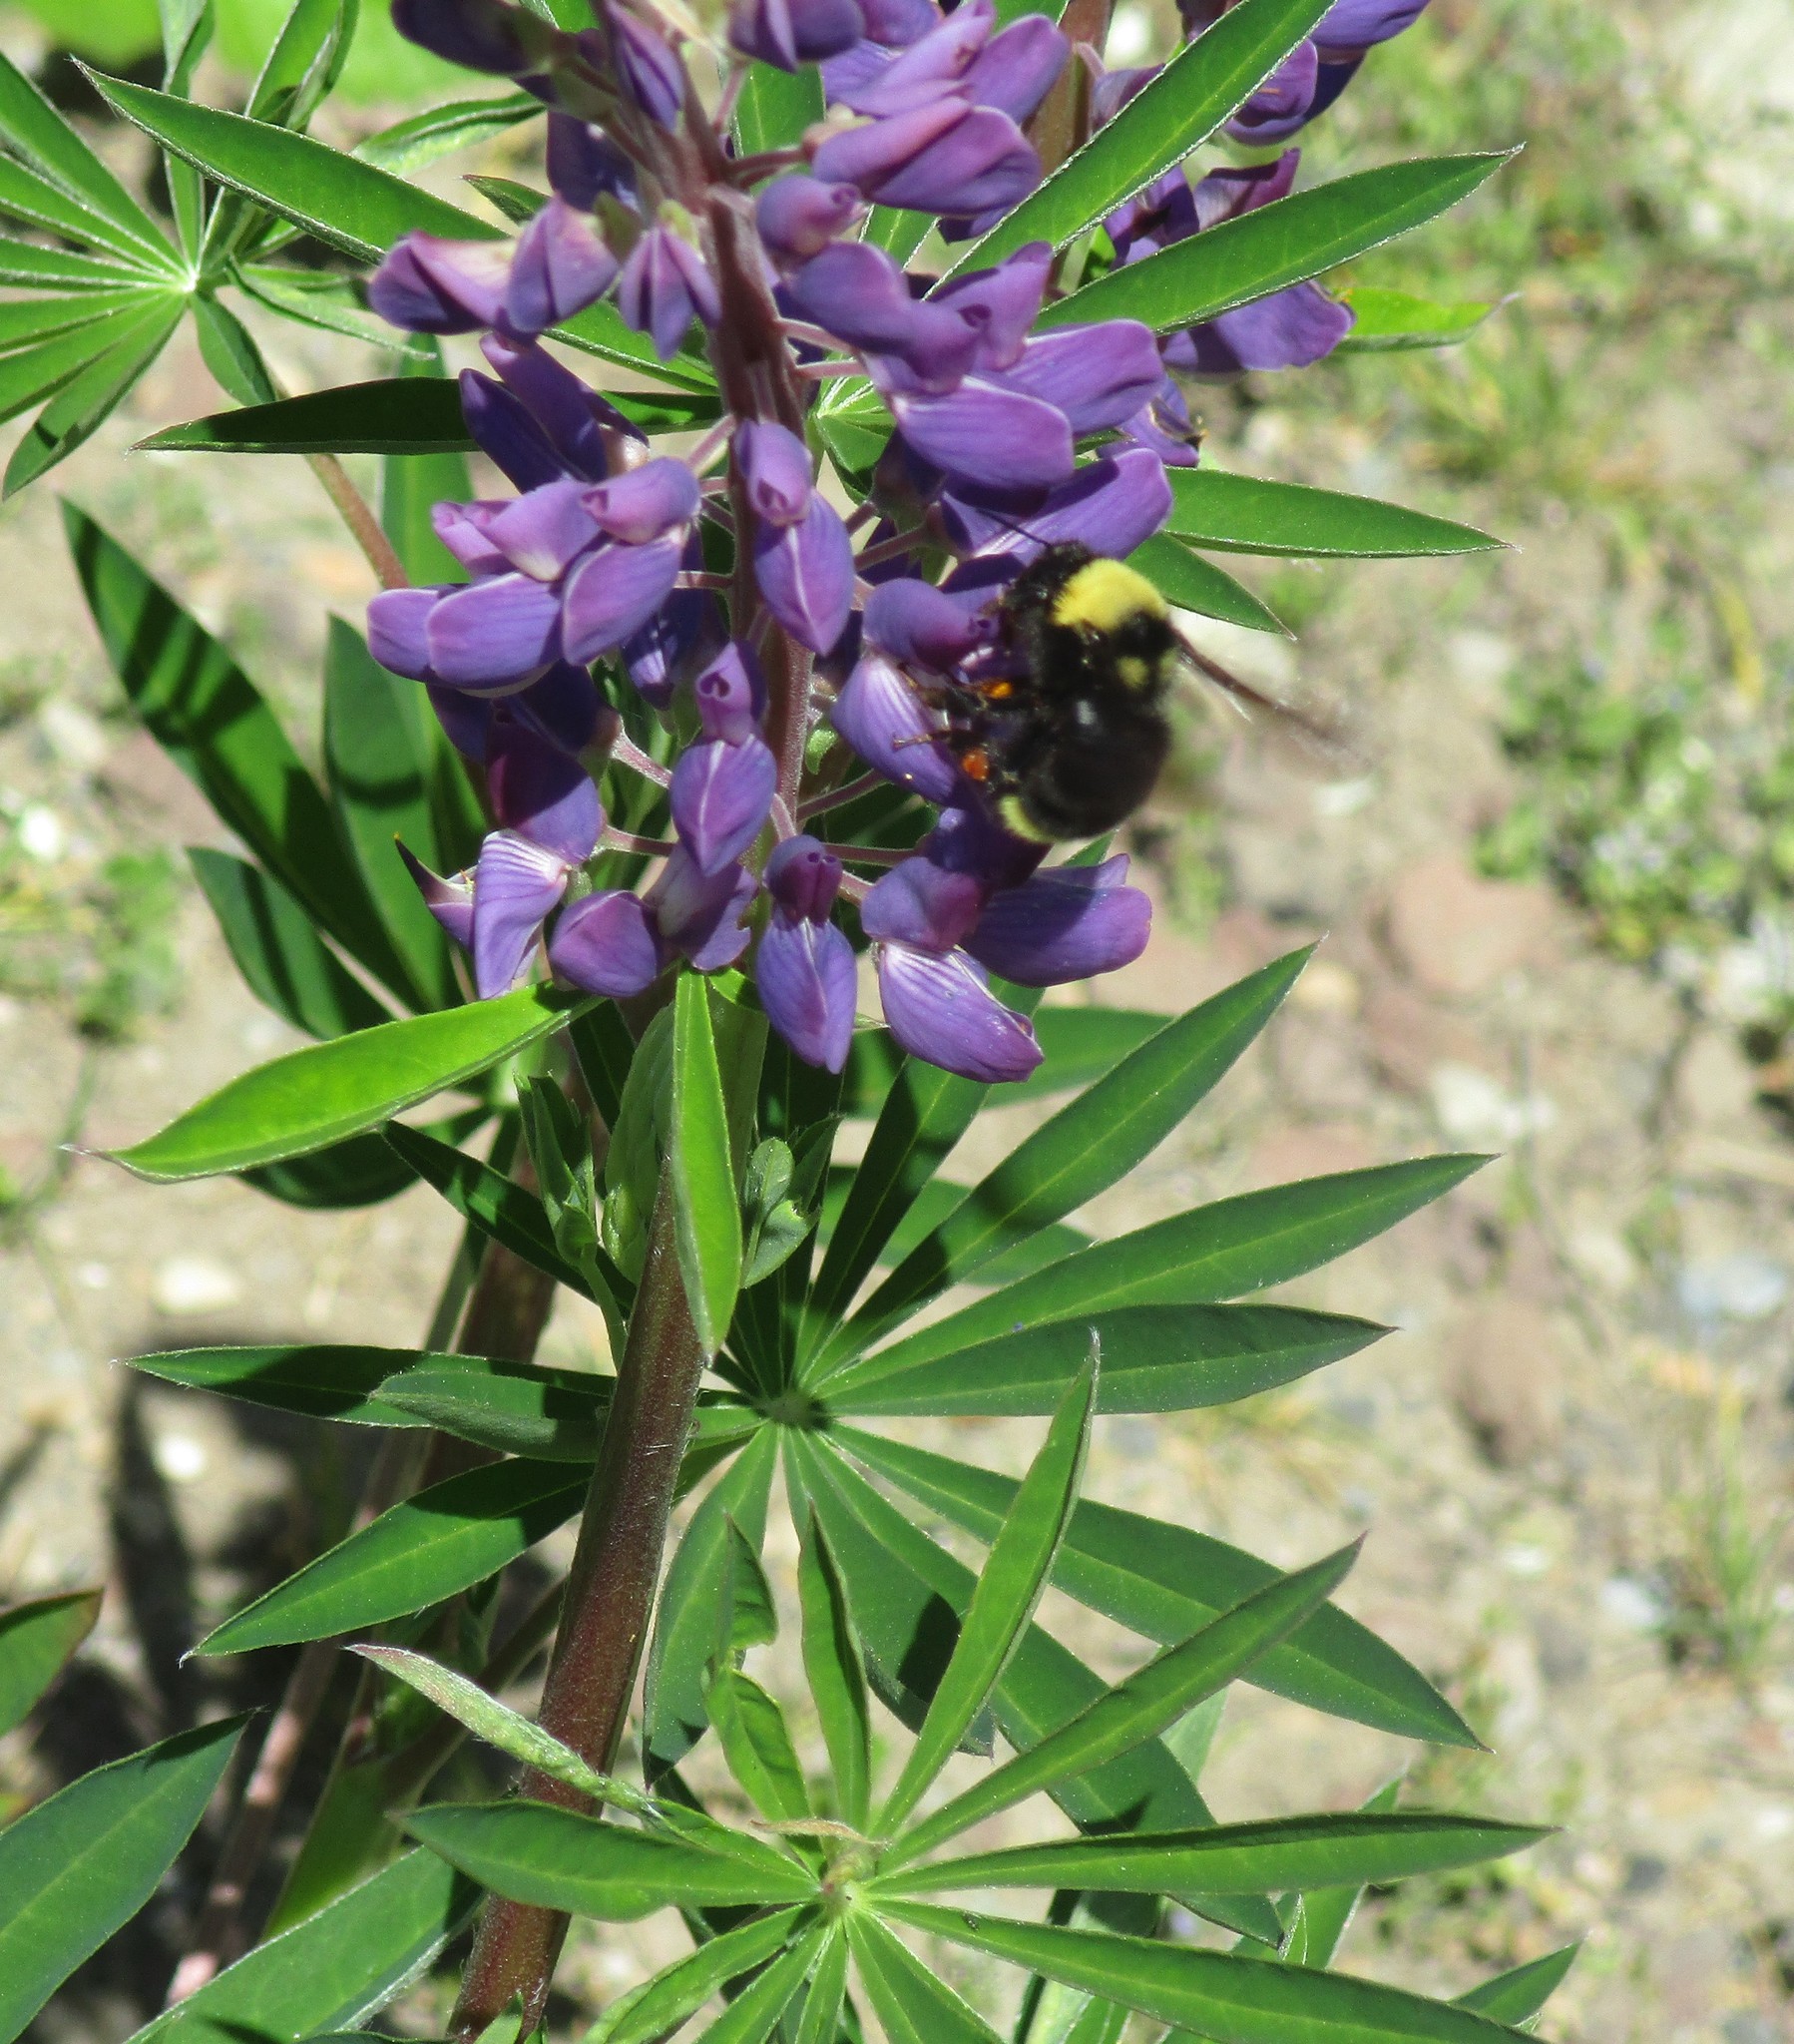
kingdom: Animalia
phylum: Arthropoda
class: Insecta
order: Hymenoptera
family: Apidae
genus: Bombus
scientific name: Bombus californicus
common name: California bumble bee
